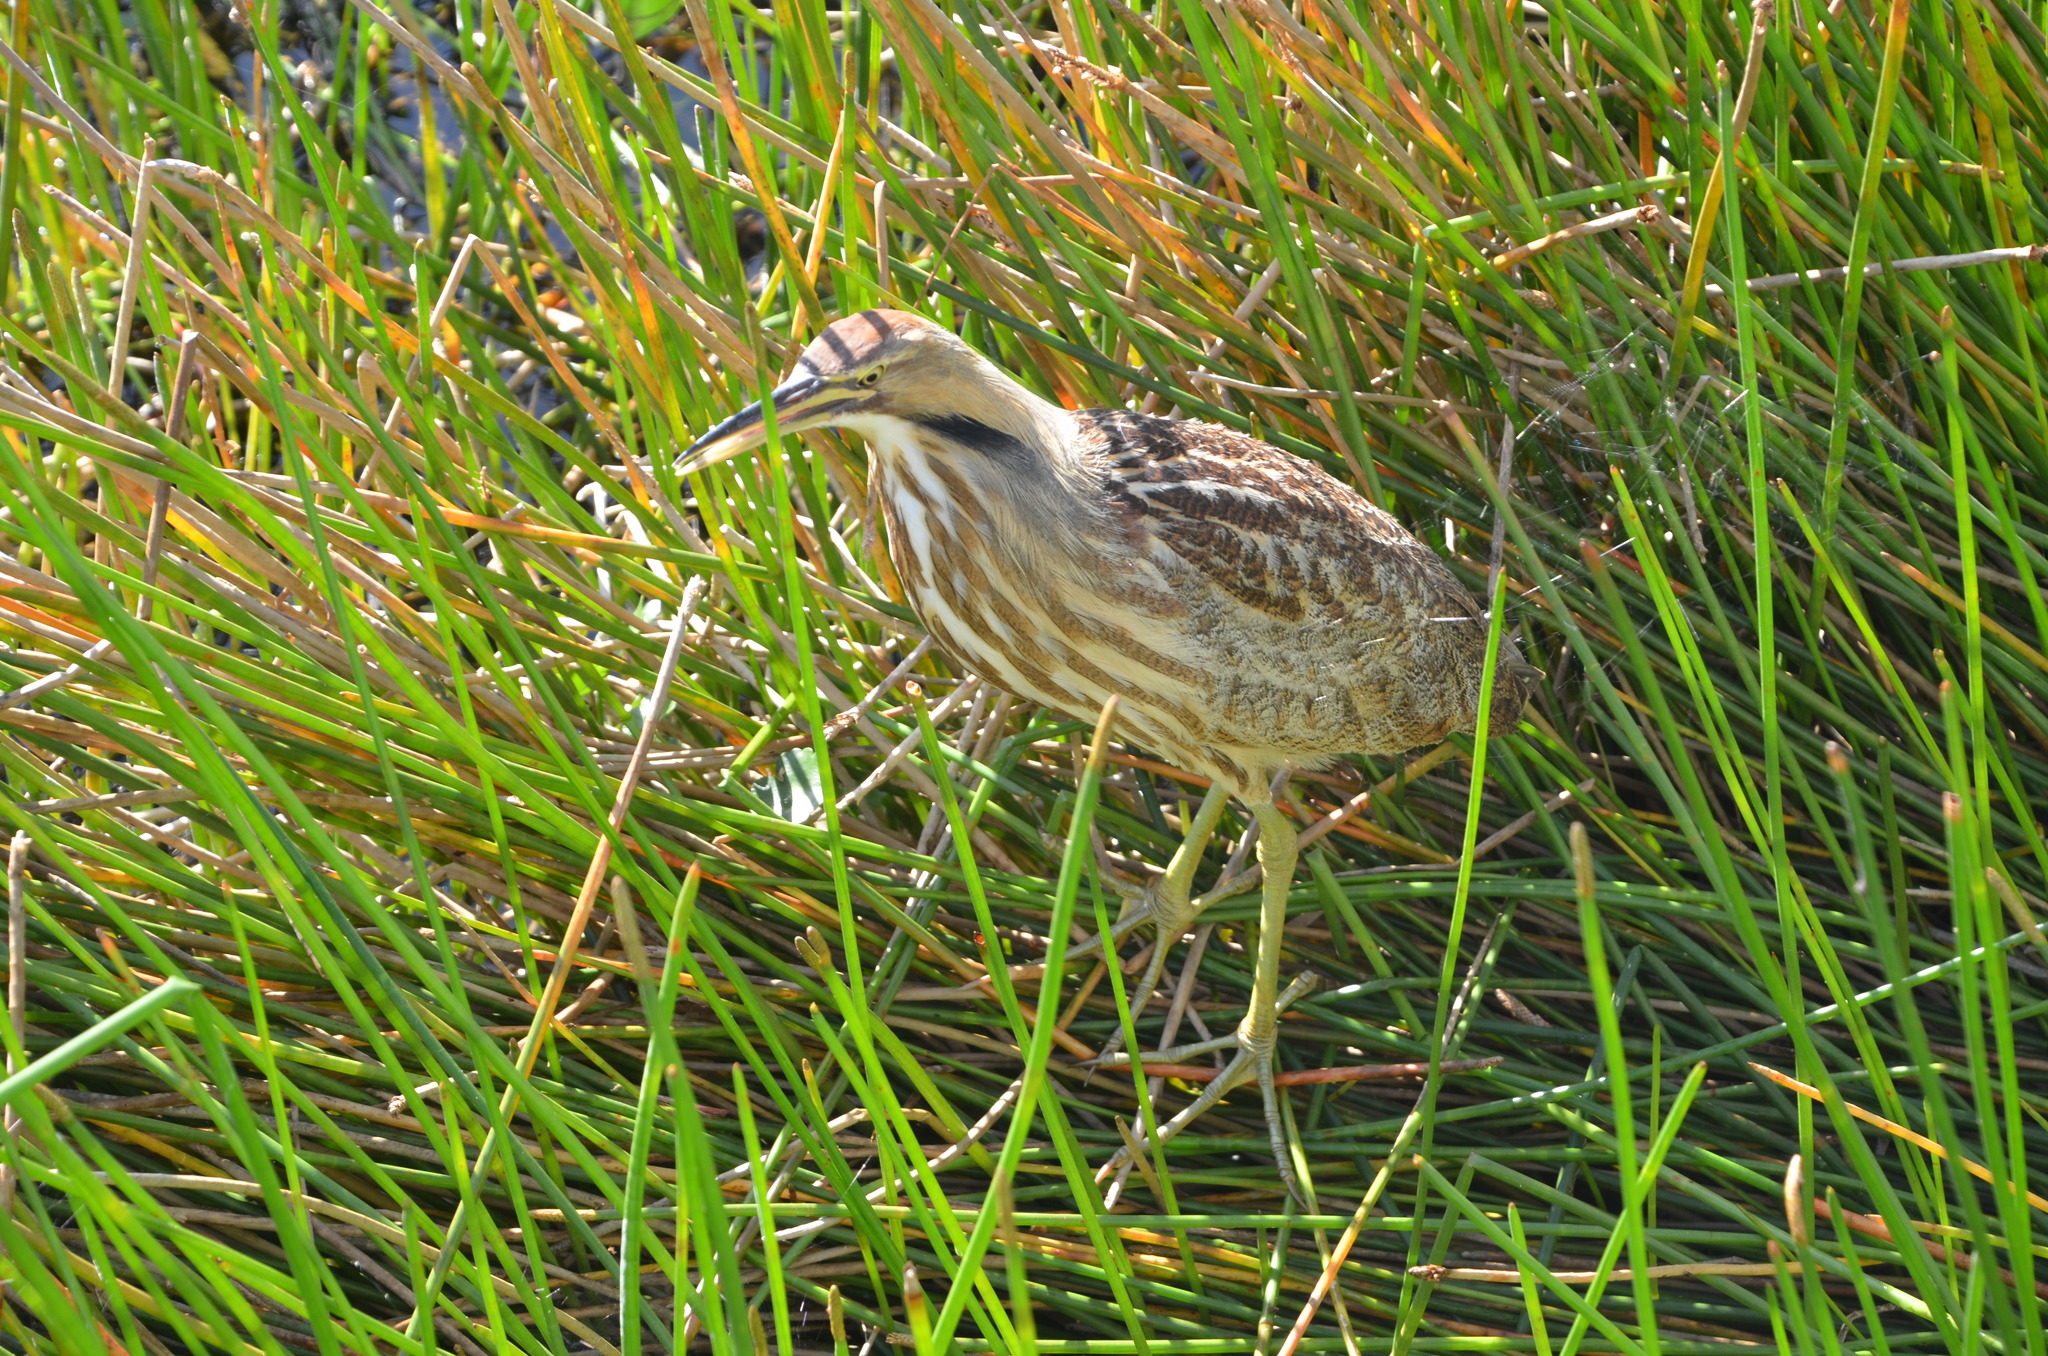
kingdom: Animalia
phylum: Chordata
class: Aves
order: Pelecaniformes
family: Ardeidae
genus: Botaurus
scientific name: Botaurus lentiginosus
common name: American bittern
